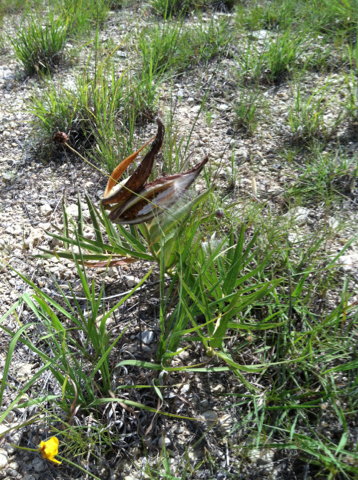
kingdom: Plantae
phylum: Tracheophyta
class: Magnoliopsida
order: Gentianales
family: Apocynaceae
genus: Asclepias
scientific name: Asclepias asperula
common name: Antelope horns
